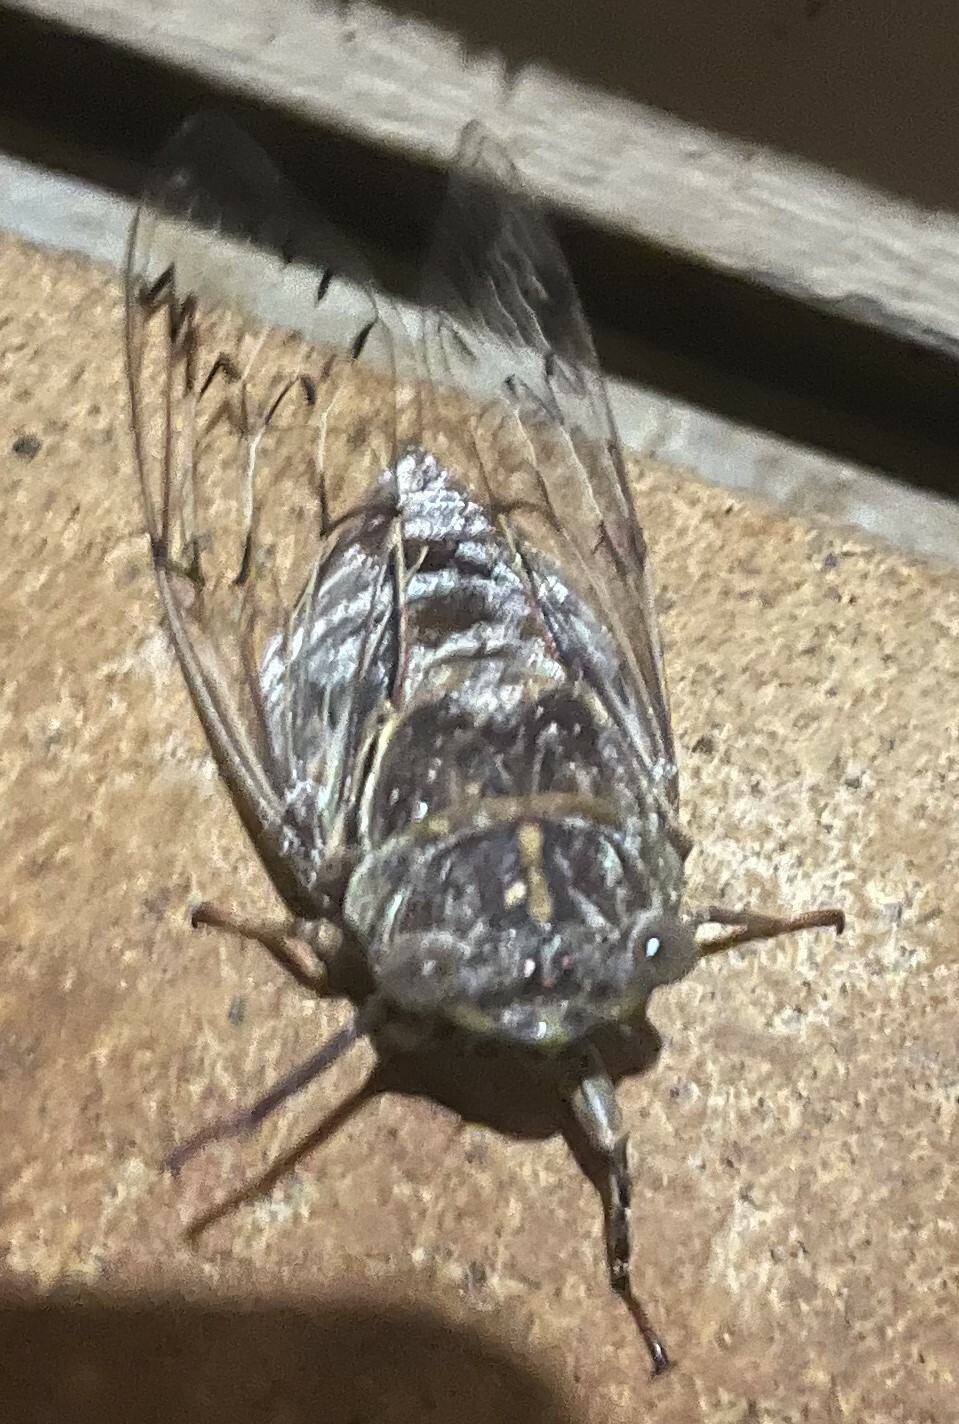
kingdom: Animalia
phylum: Arthropoda
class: Insecta
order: Hemiptera
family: Cicadidae
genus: Henicopsaltria
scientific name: Henicopsaltria eydouxii
